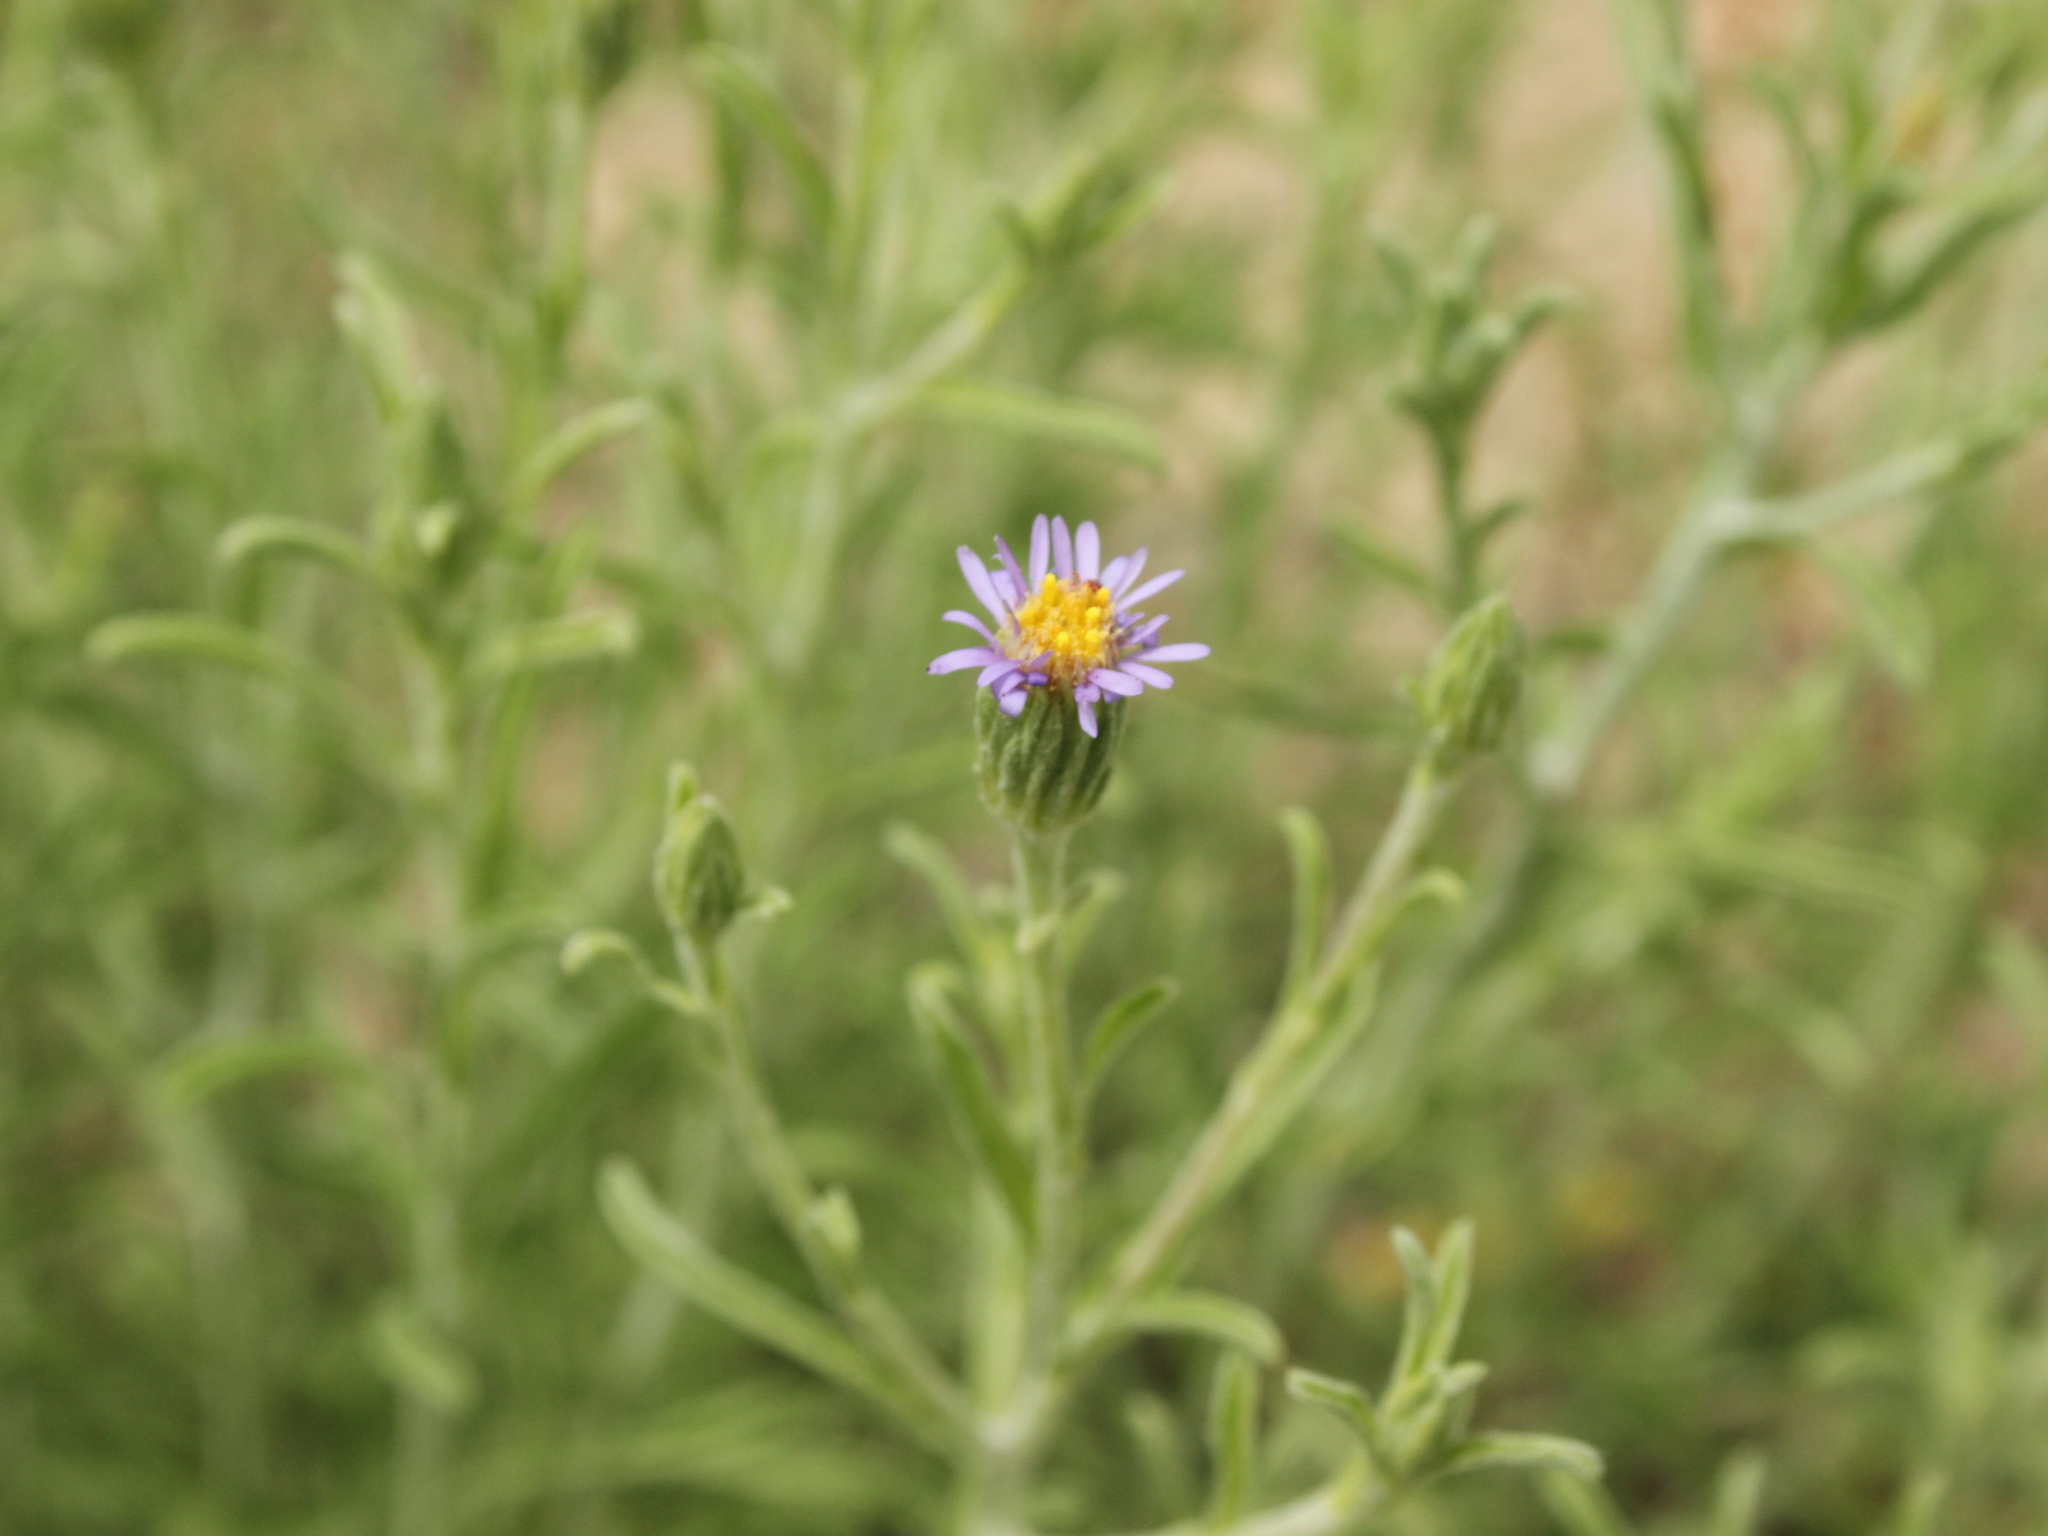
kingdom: Plantae
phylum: Tracheophyta
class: Magnoliopsida
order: Asterales
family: Asteraceae
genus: Vittadinia
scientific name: Vittadinia gracilis
